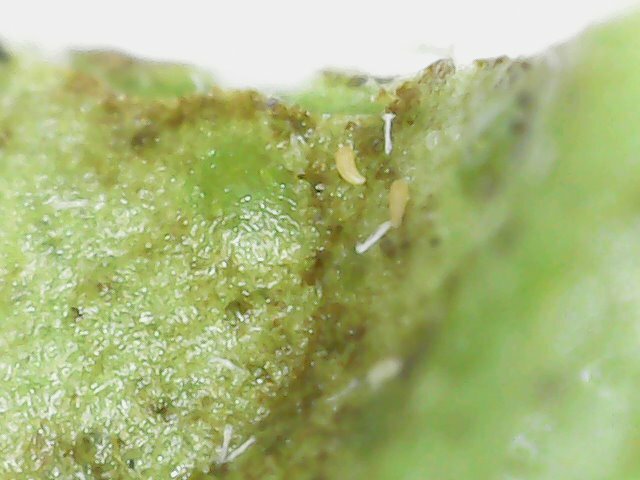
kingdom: Animalia
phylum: Arthropoda
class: Arachnida
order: Trombidiformes
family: Eriophyidae
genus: Phyllocoptruta
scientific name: Phyllocoptruta oleivora
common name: Citrus rust mite
